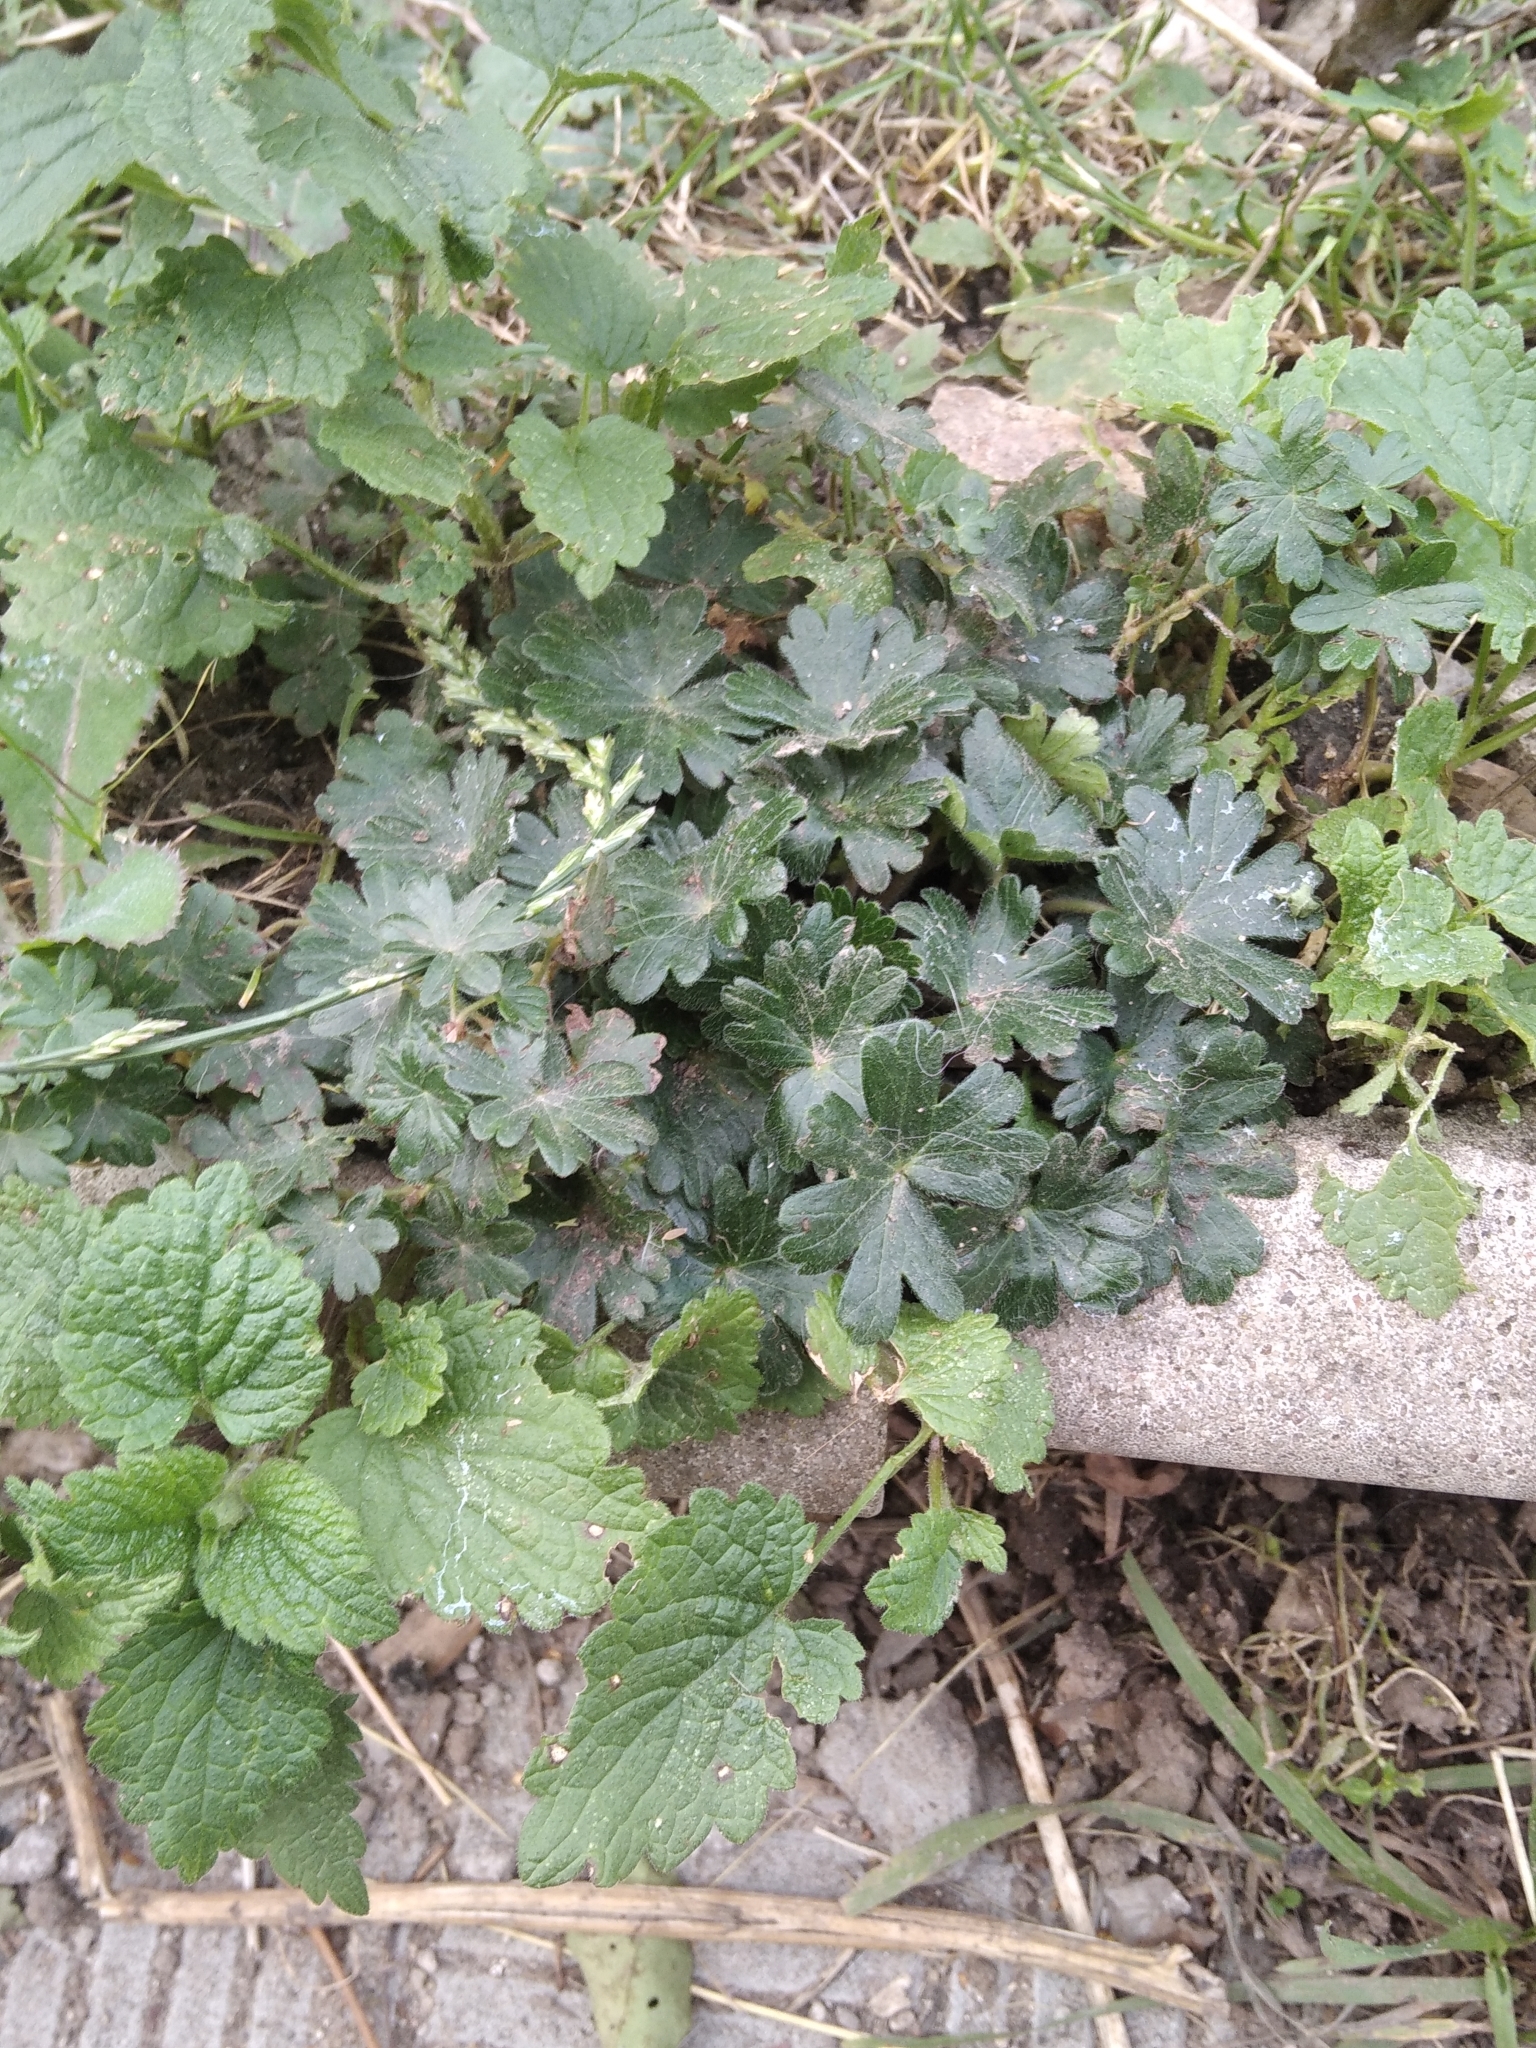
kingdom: Plantae
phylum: Tracheophyta
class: Magnoliopsida
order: Geraniales
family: Geraniaceae
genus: Geranium
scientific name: Geranium molle
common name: Dove's-foot crane's-bill
